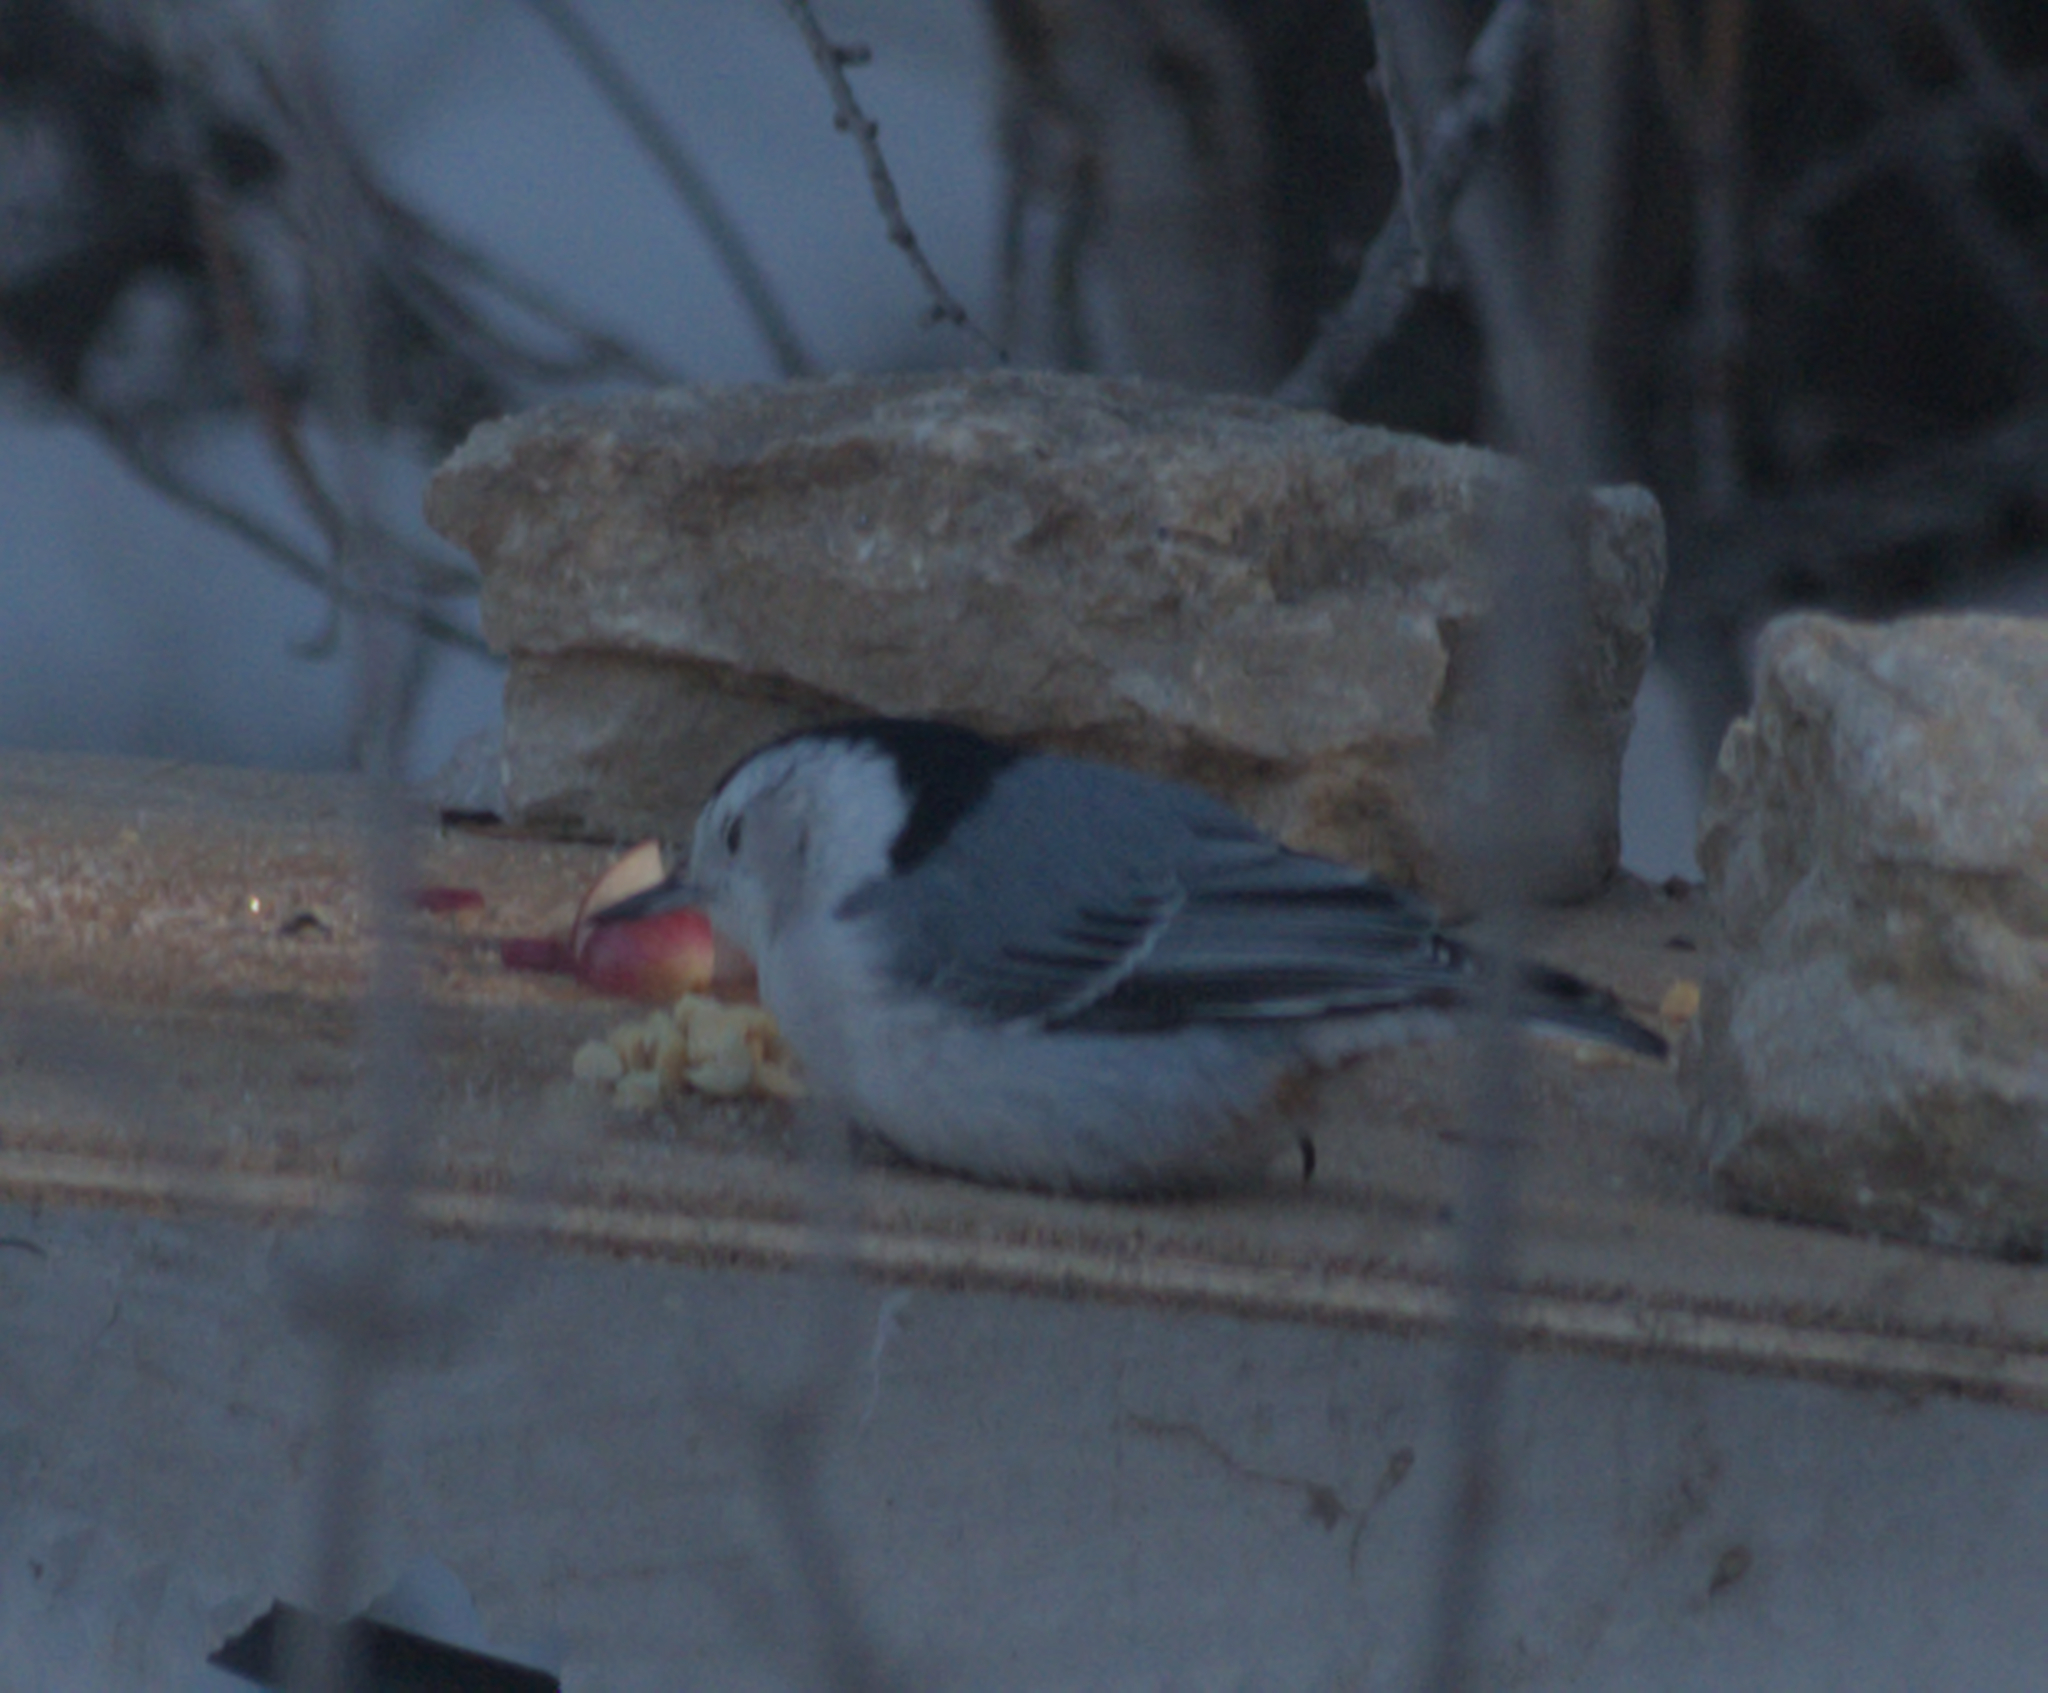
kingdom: Animalia
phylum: Chordata
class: Aves
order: Passeriformes
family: Sittidae
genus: Sitta
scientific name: Sitta carolinensis
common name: White-breasted nuthatch
